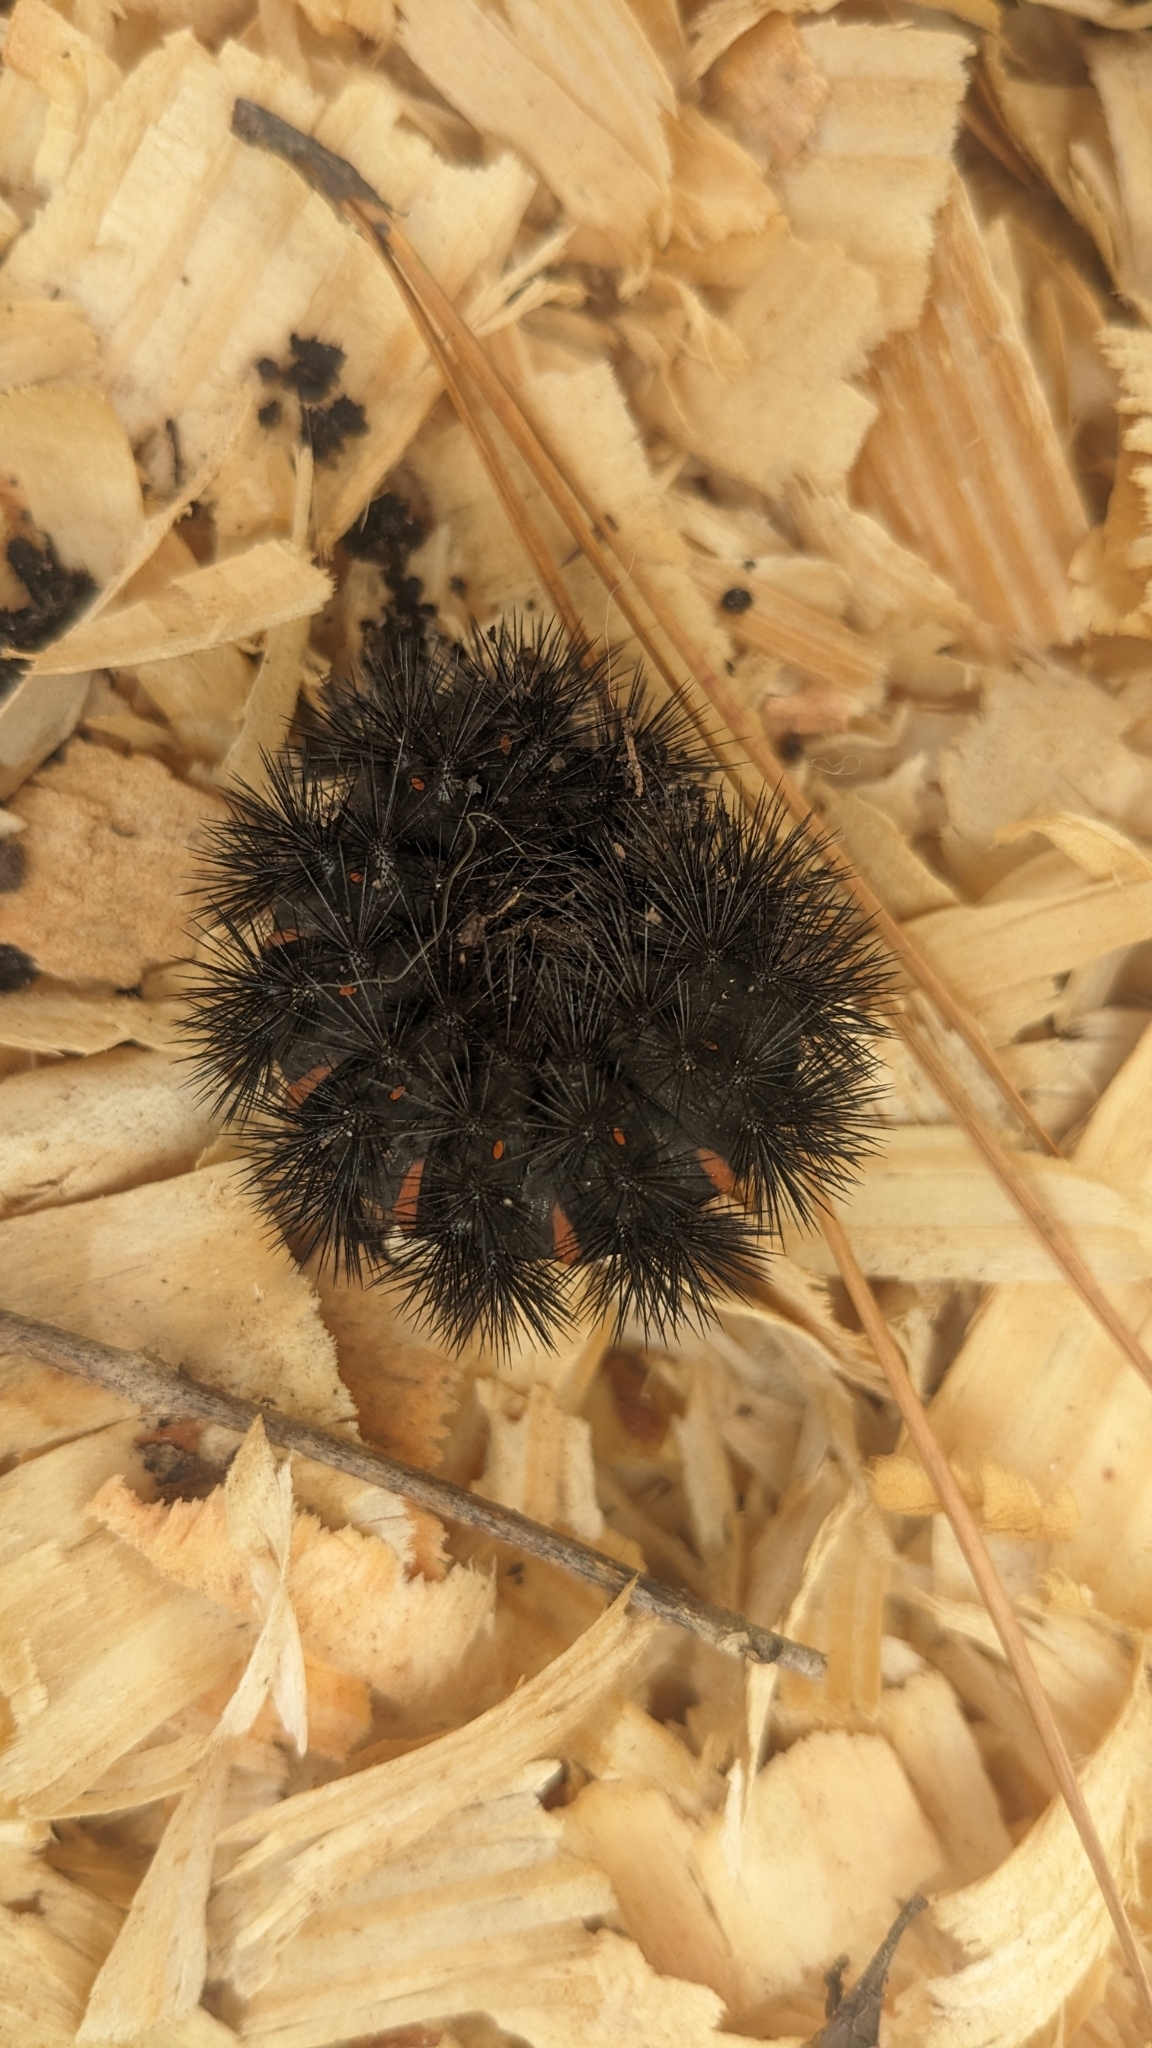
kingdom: Animalia
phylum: Arthropoda
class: Insecta
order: Lepidoptera
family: Erebidae
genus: Hypercompe
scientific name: Hypercompe scribonia
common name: Giant leopard moth
